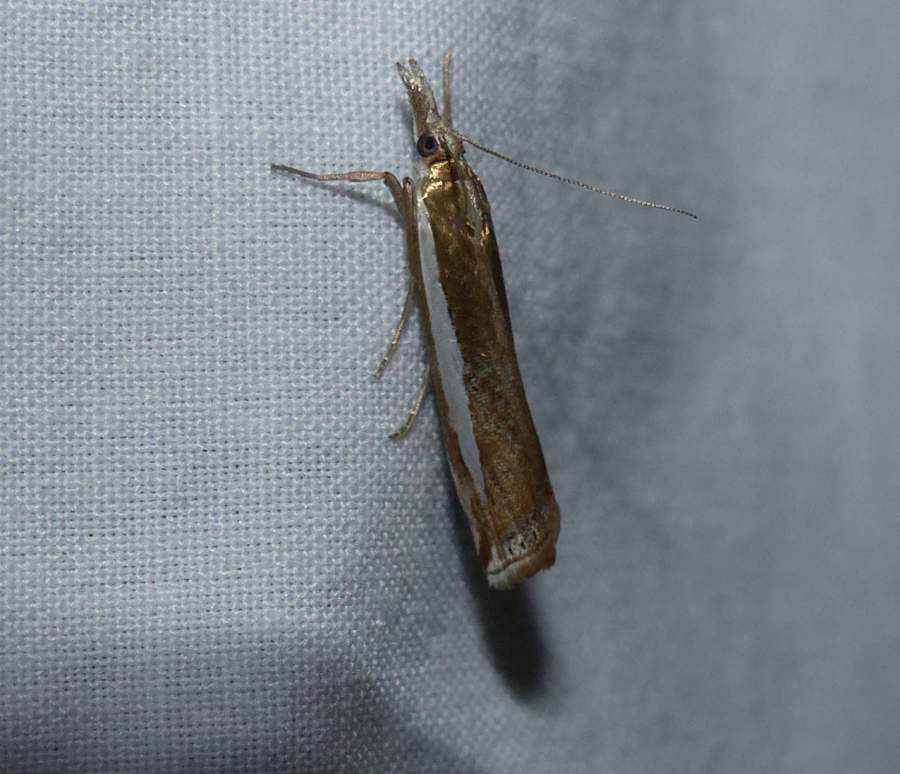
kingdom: Animalia
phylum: Arthropoda
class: Insecta
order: Lepidoptera
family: Crambidae
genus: Crambus
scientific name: Crambus praefectellus
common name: Common grass-veneer
